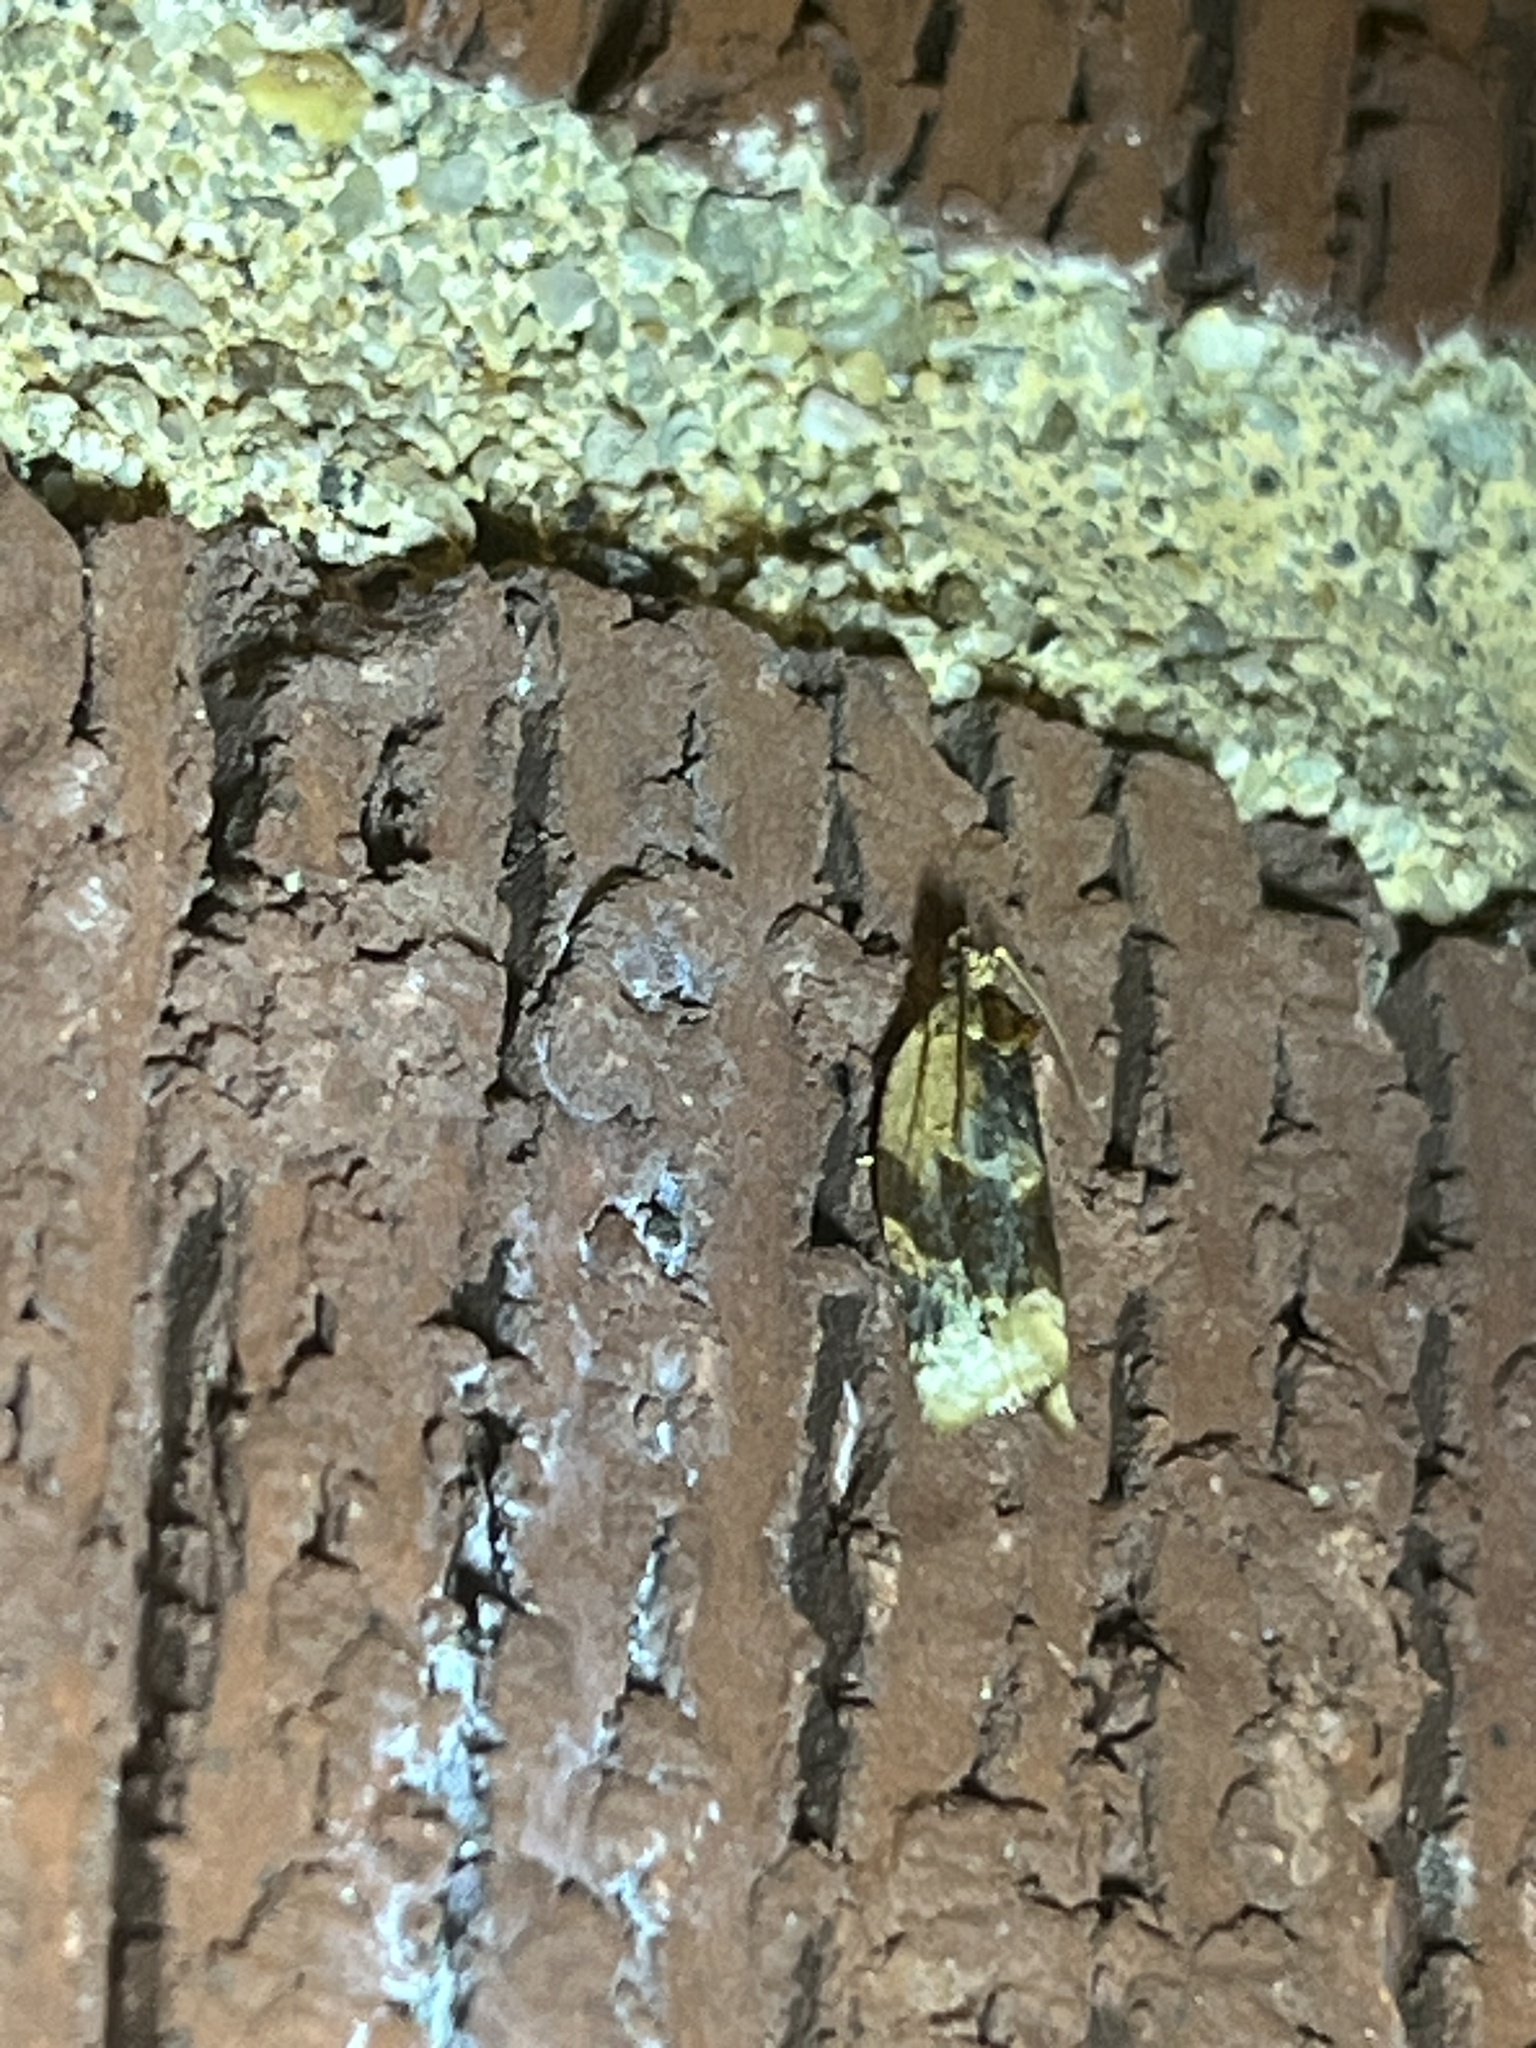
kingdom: Animalia
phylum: Arthropoda
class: Insecta
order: Lepidoptera
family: Tortricidae
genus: Argyrotaenia
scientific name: Argyrotaenia velutinana
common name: Red-banded leafroller moth
